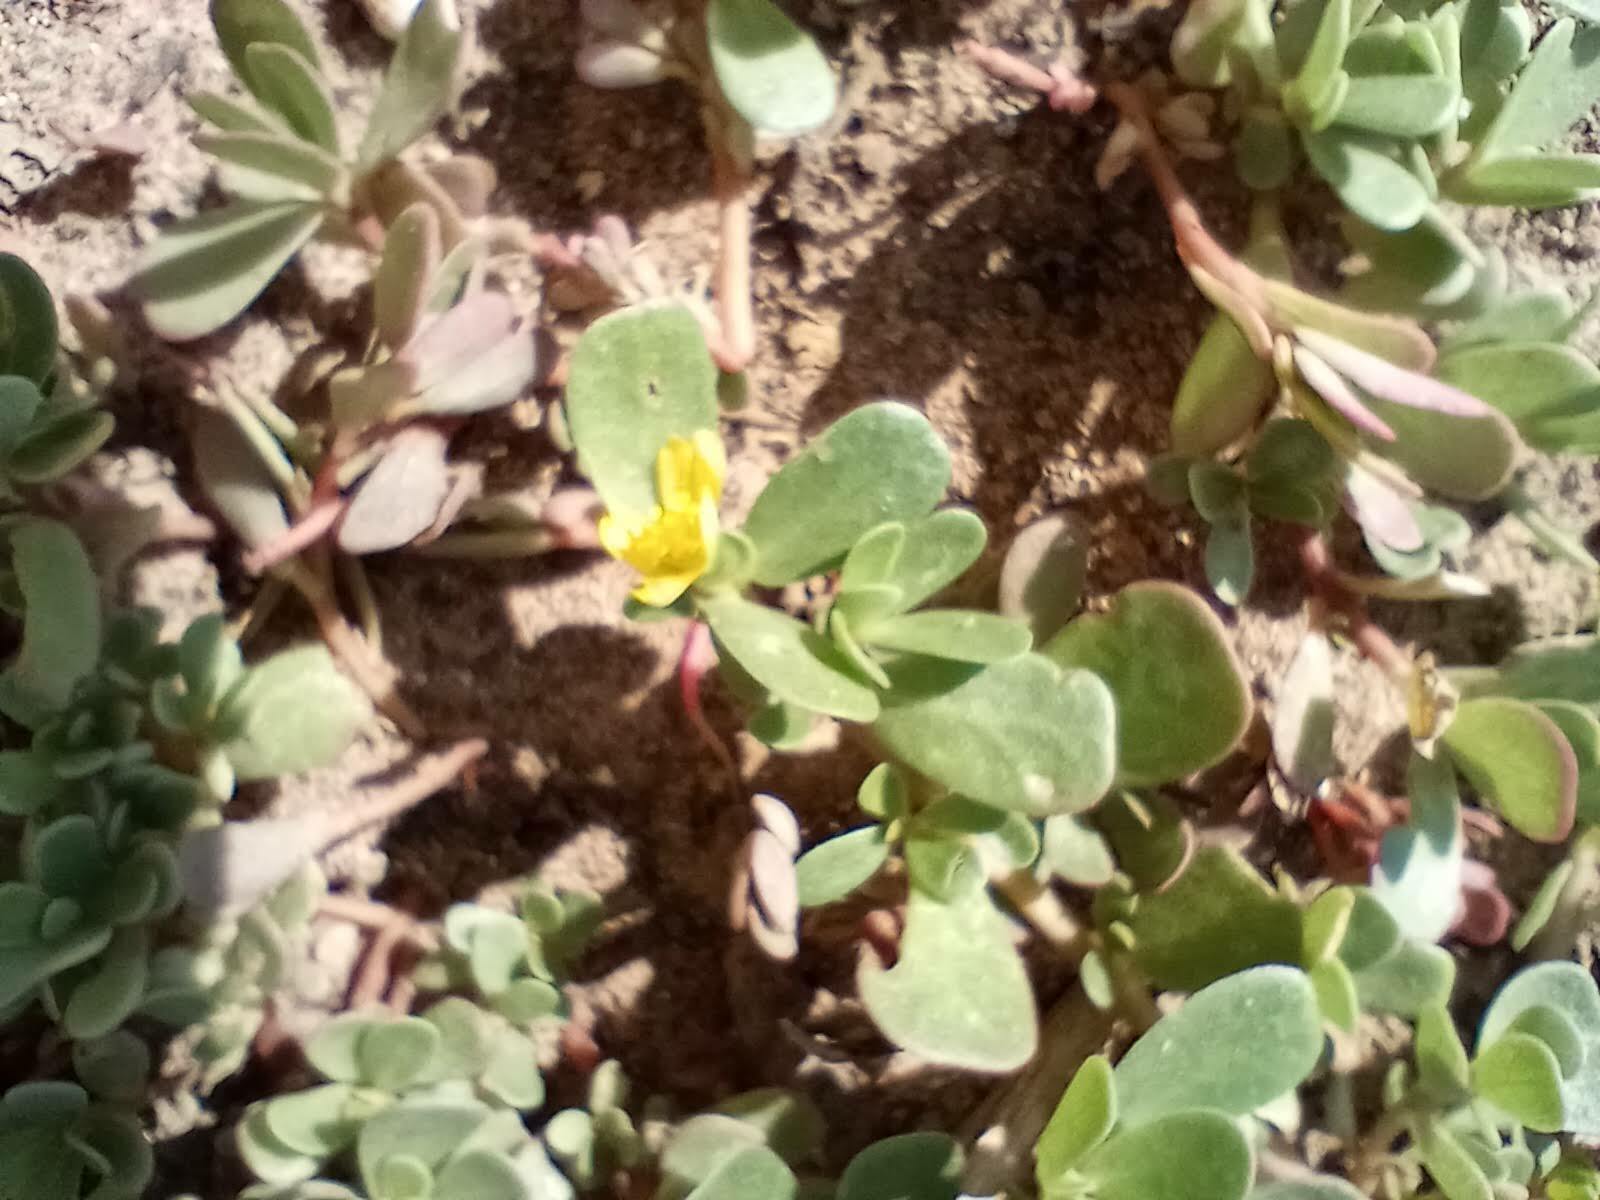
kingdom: Plantae
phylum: Tracheophyta
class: Magnoliopsida
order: Caryophyllales
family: Portulacaceae
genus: Portulaca
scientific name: Portulaca oleracea
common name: Common purslane
